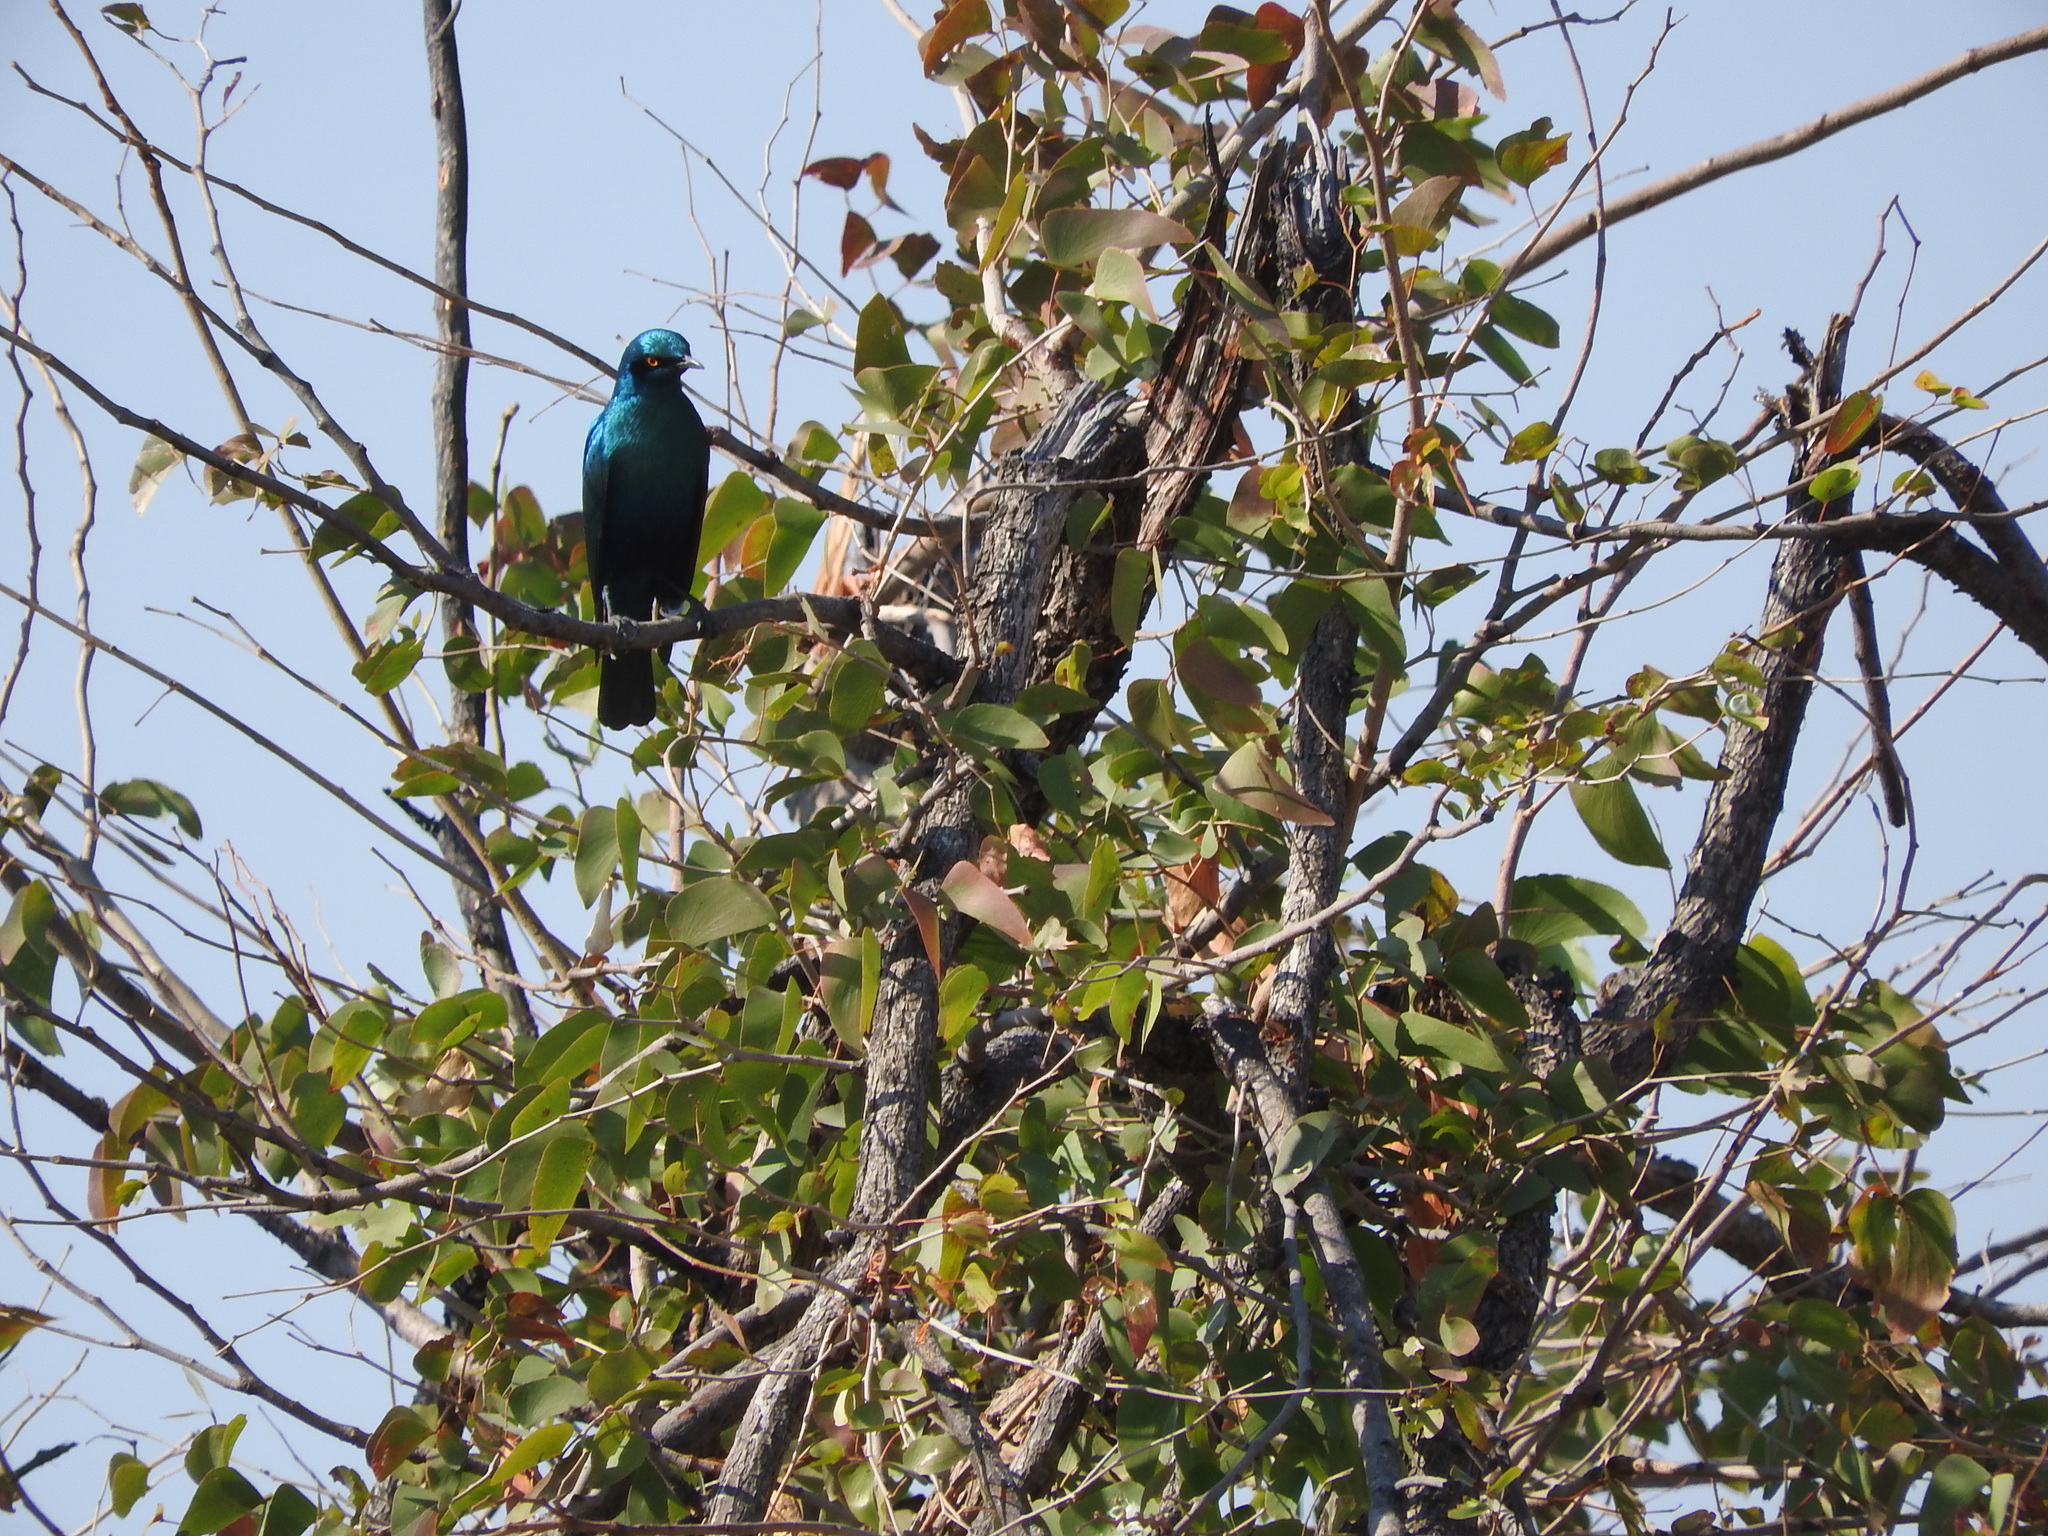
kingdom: Animalia
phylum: Chordata
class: Aves
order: Passeriformes
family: Sturnidae
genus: Lamprotornis
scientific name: Lamprotornis chalybaeus
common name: Greater blue-eared starling
